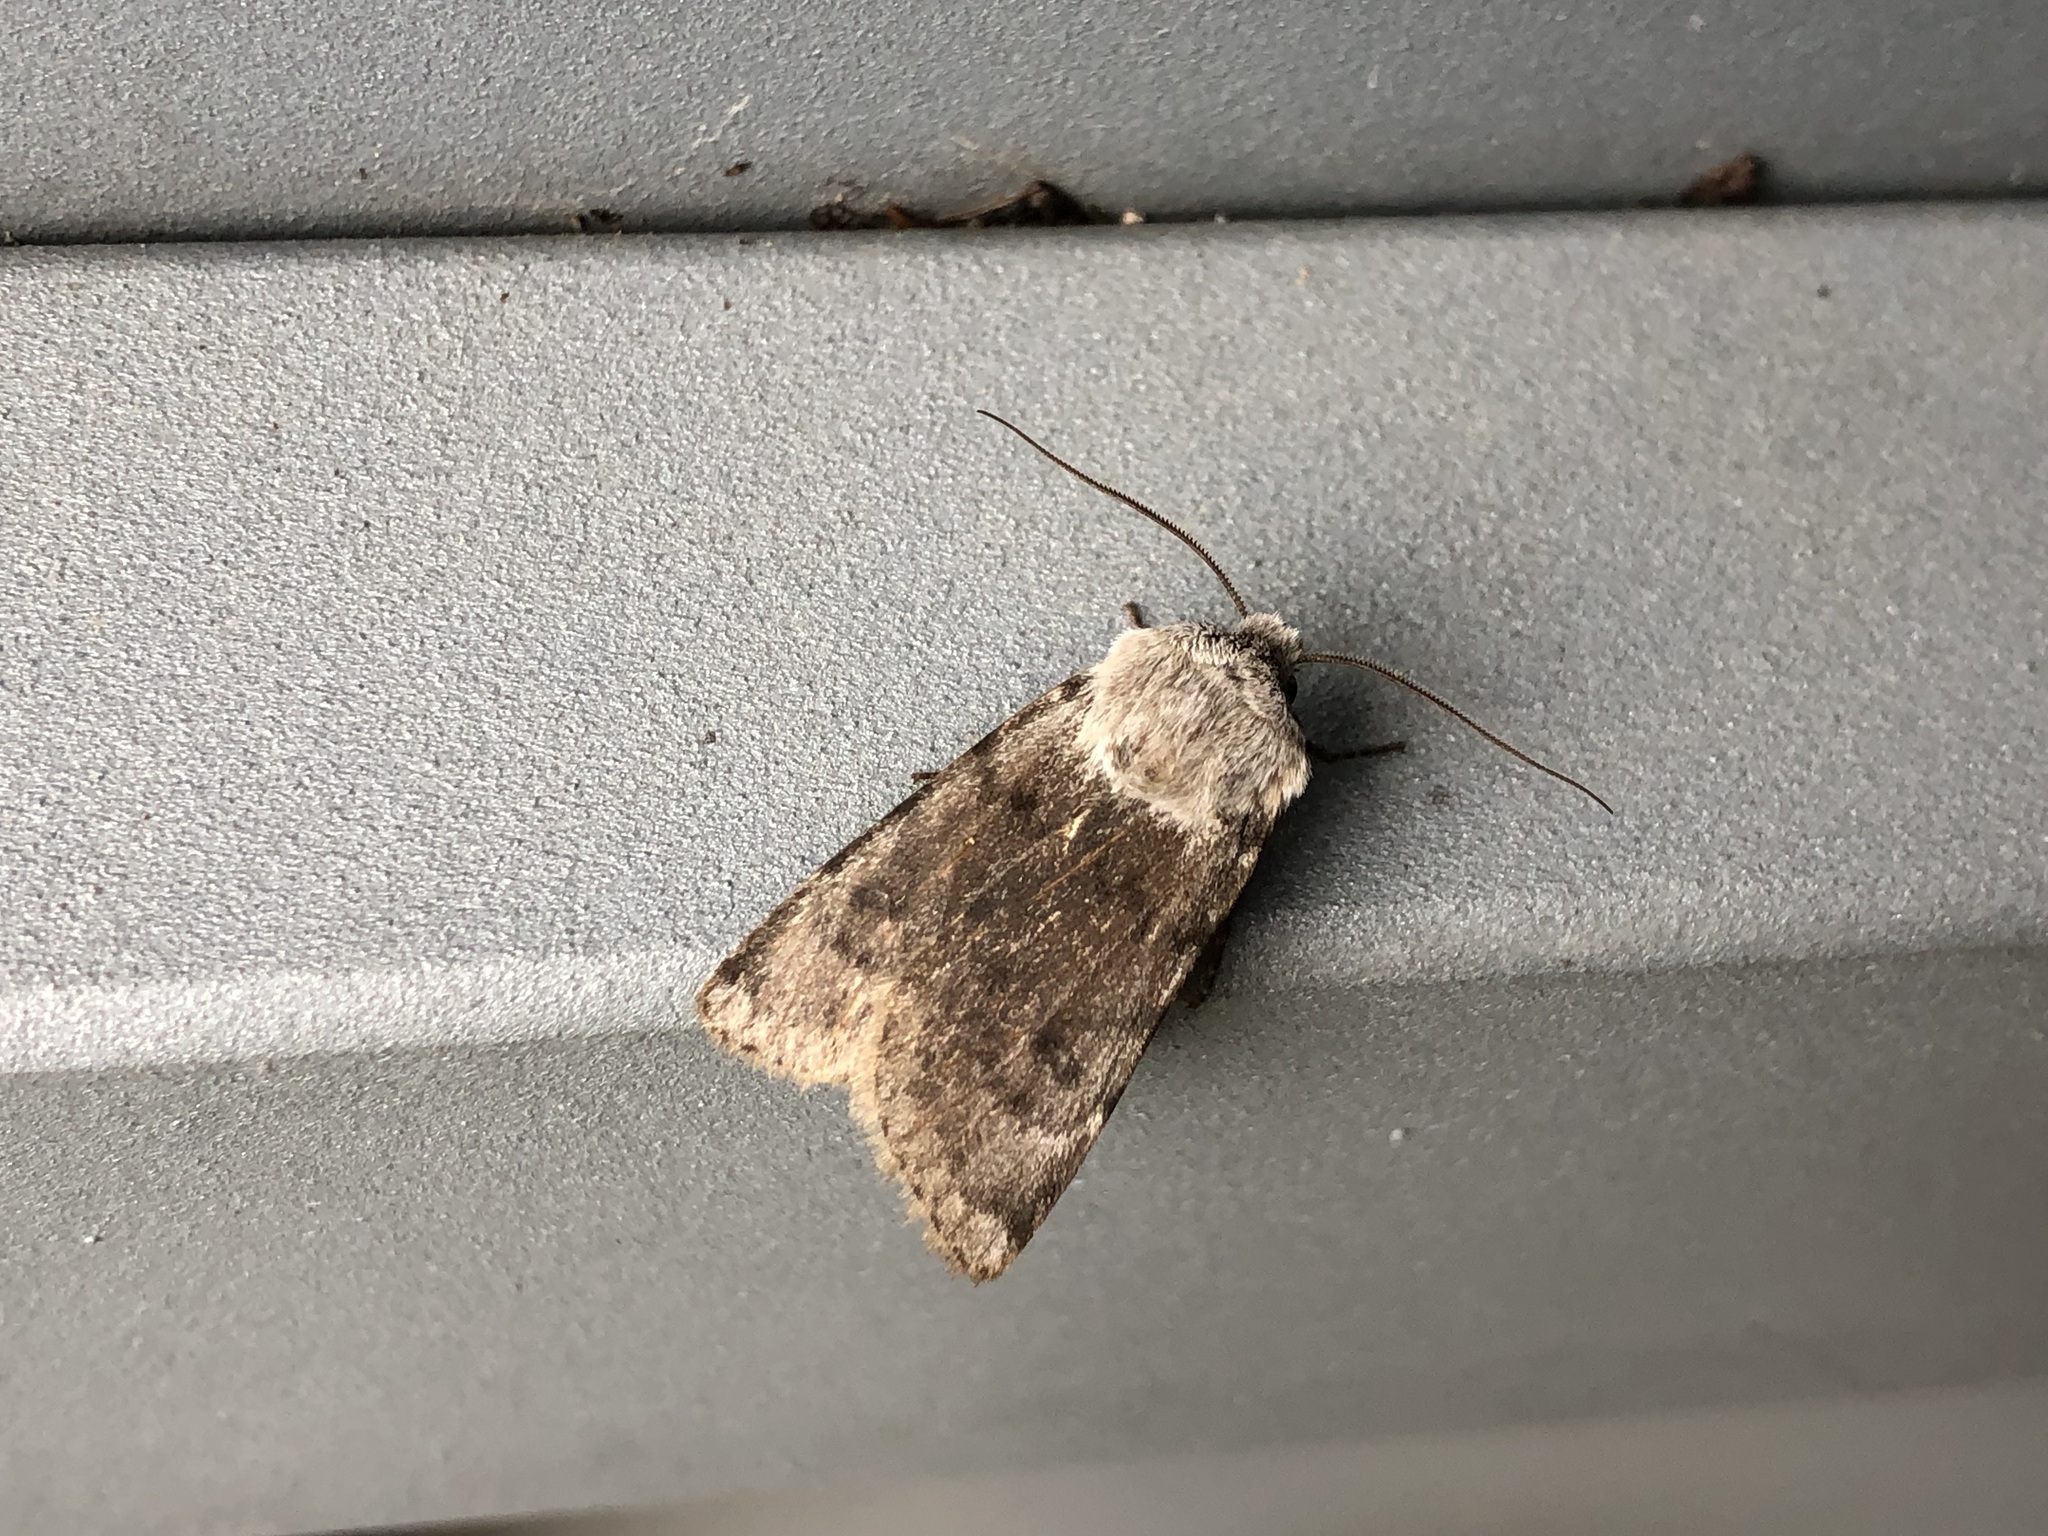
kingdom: Animalia
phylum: Arthropoda
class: Insecta
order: Lepidoptera
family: Noctuidae
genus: Agrotis
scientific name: Agrotis simplonia
